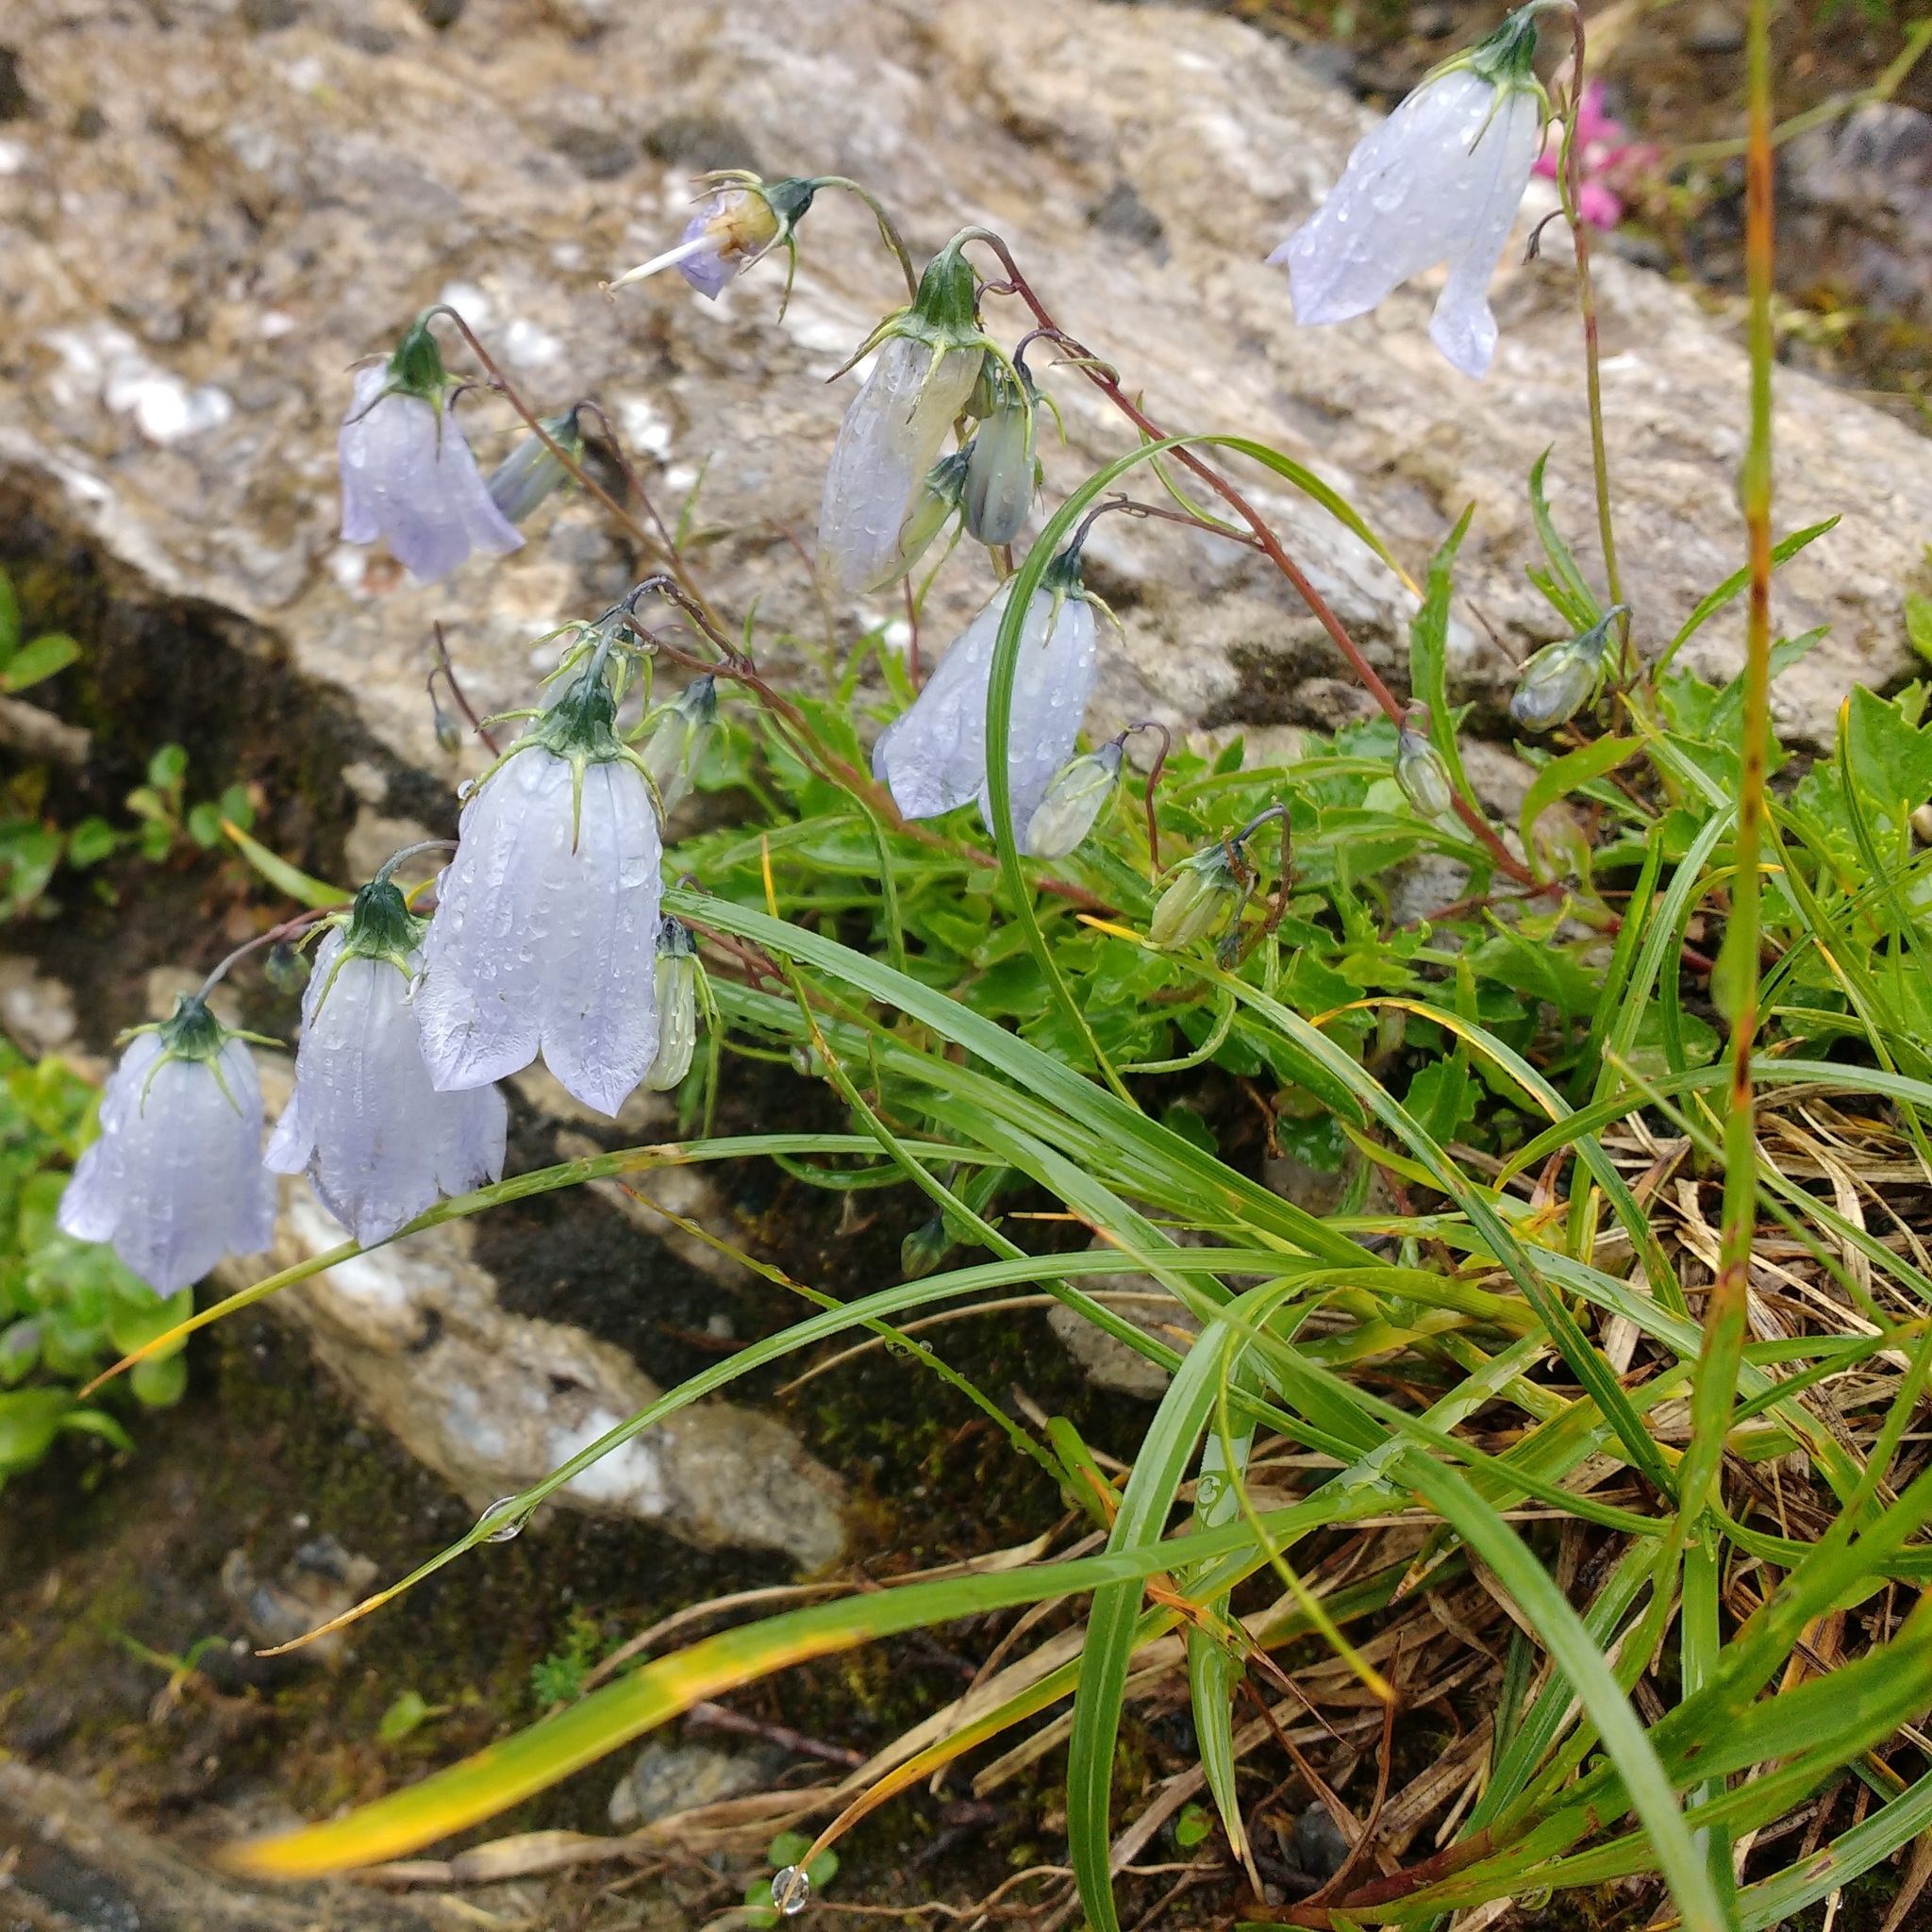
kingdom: Plantae
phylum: Tracheophyta
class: Magnoliopsida
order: Asterales
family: Campanulaceae
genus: Campanula
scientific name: Campanula cochleariifolia
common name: Fairies'-thimbles
